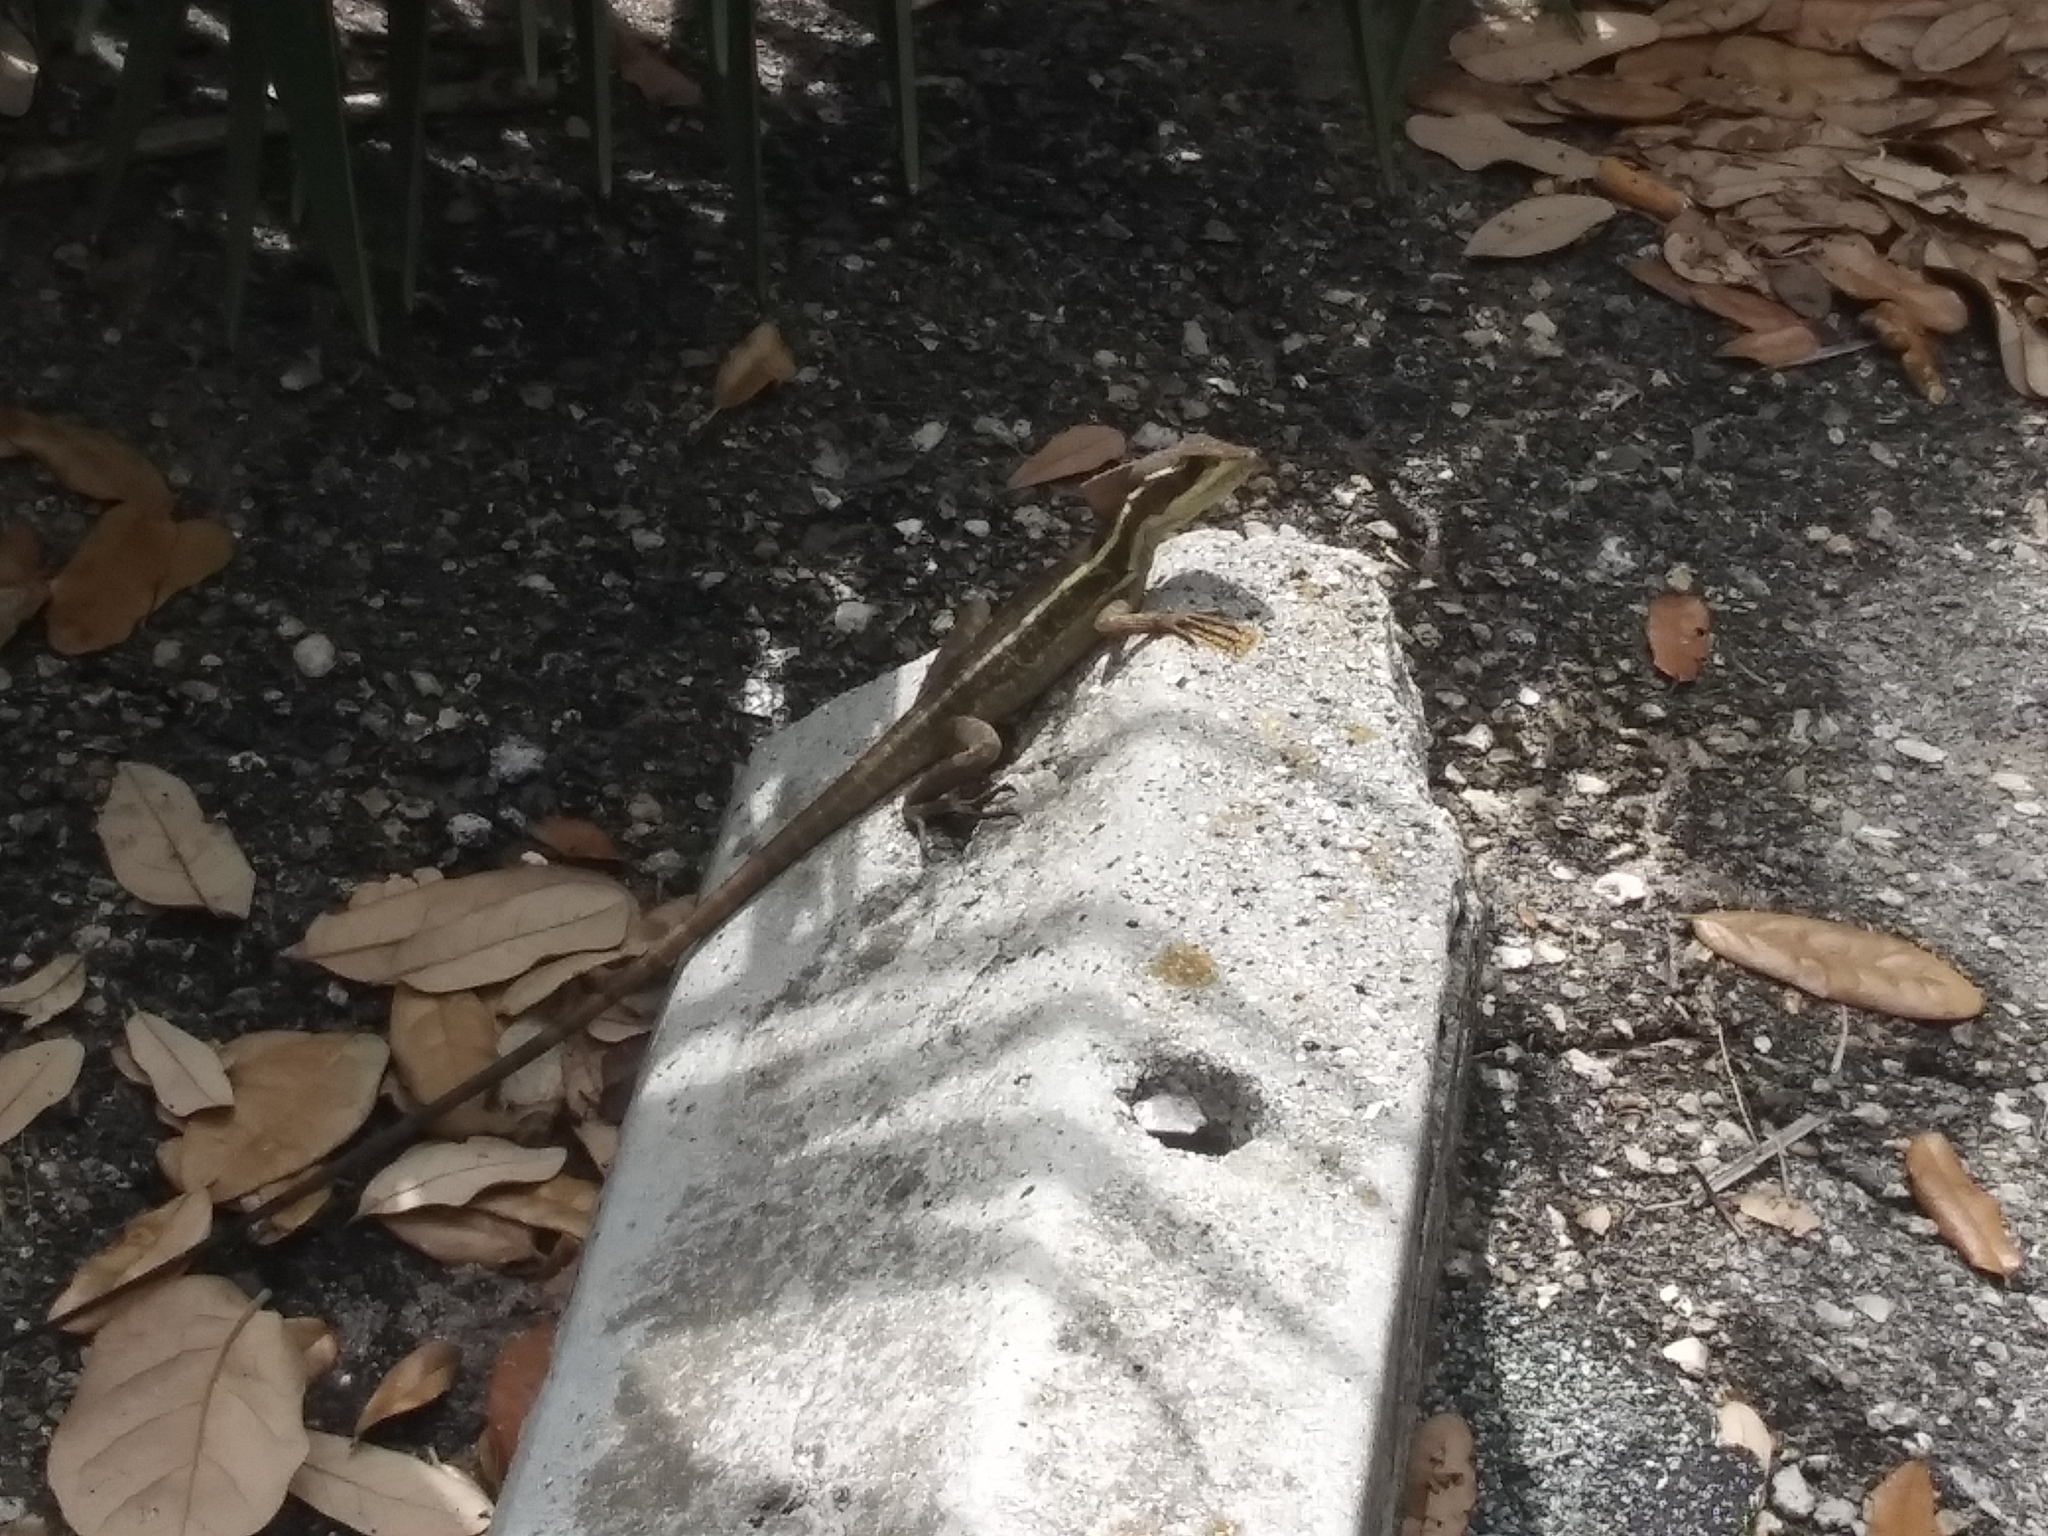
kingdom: Animalia
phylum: Chordata
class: Squamata
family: Corytophanidae
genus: Basiliscus
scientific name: Basiliscus vittatus
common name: Brown basilisk
